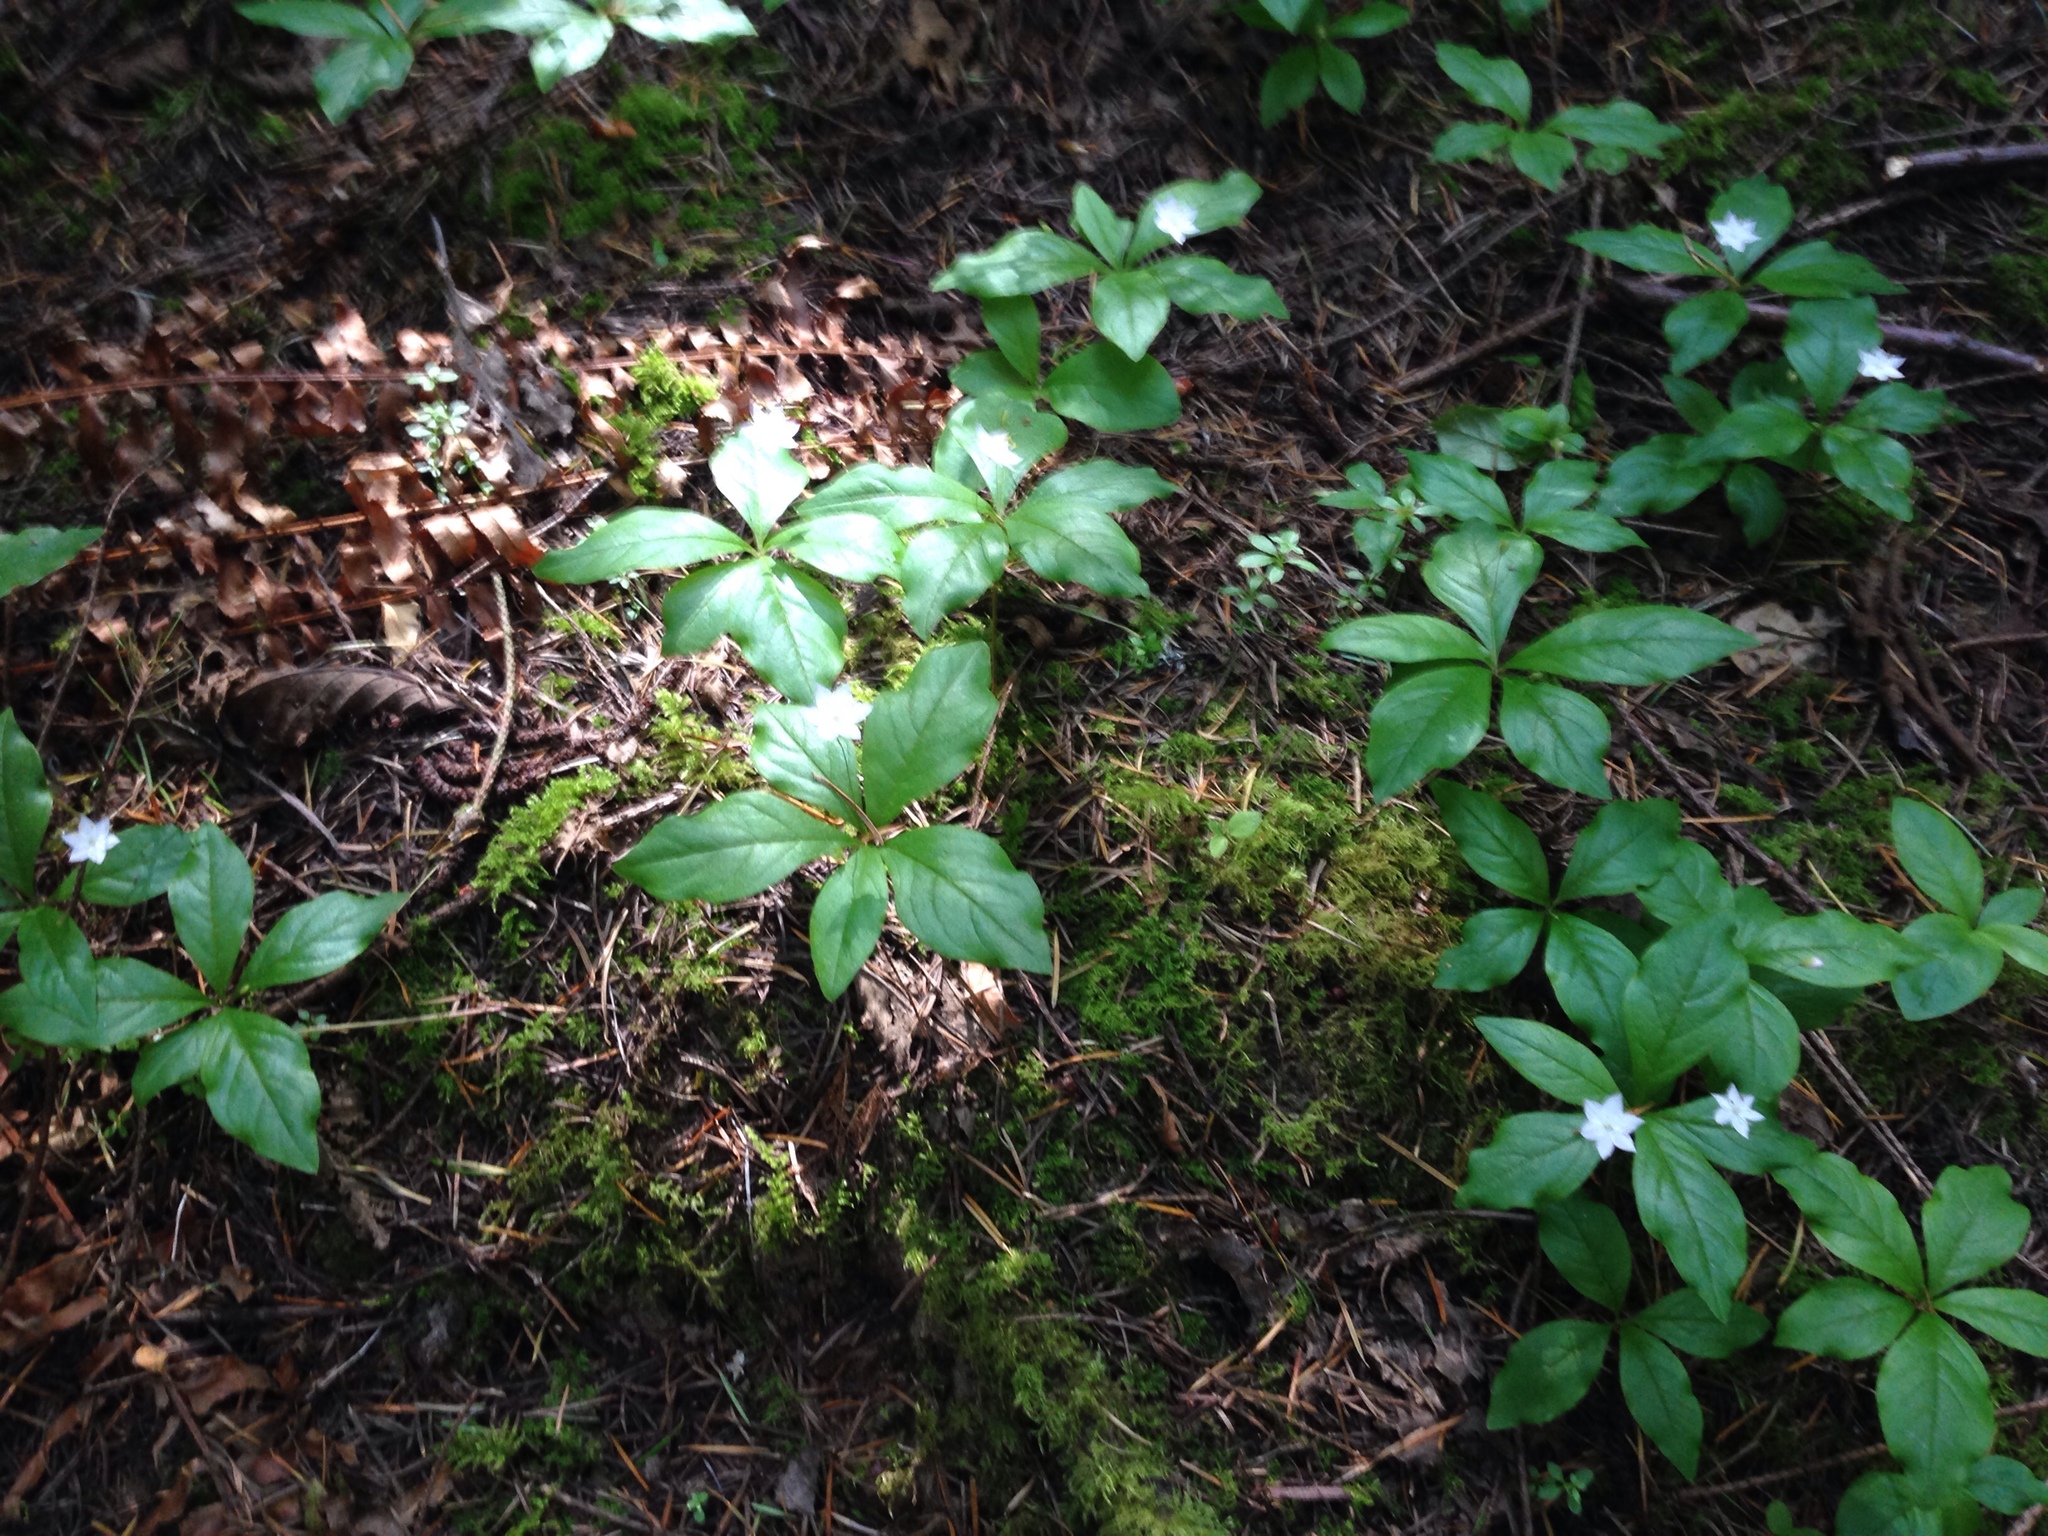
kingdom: Plantae
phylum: Tracheophyta
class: Magnoliopsida
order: Ericales
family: Primulaceae
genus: Lysimachia
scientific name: Lysimachia latifolia
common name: Pacific starflower
